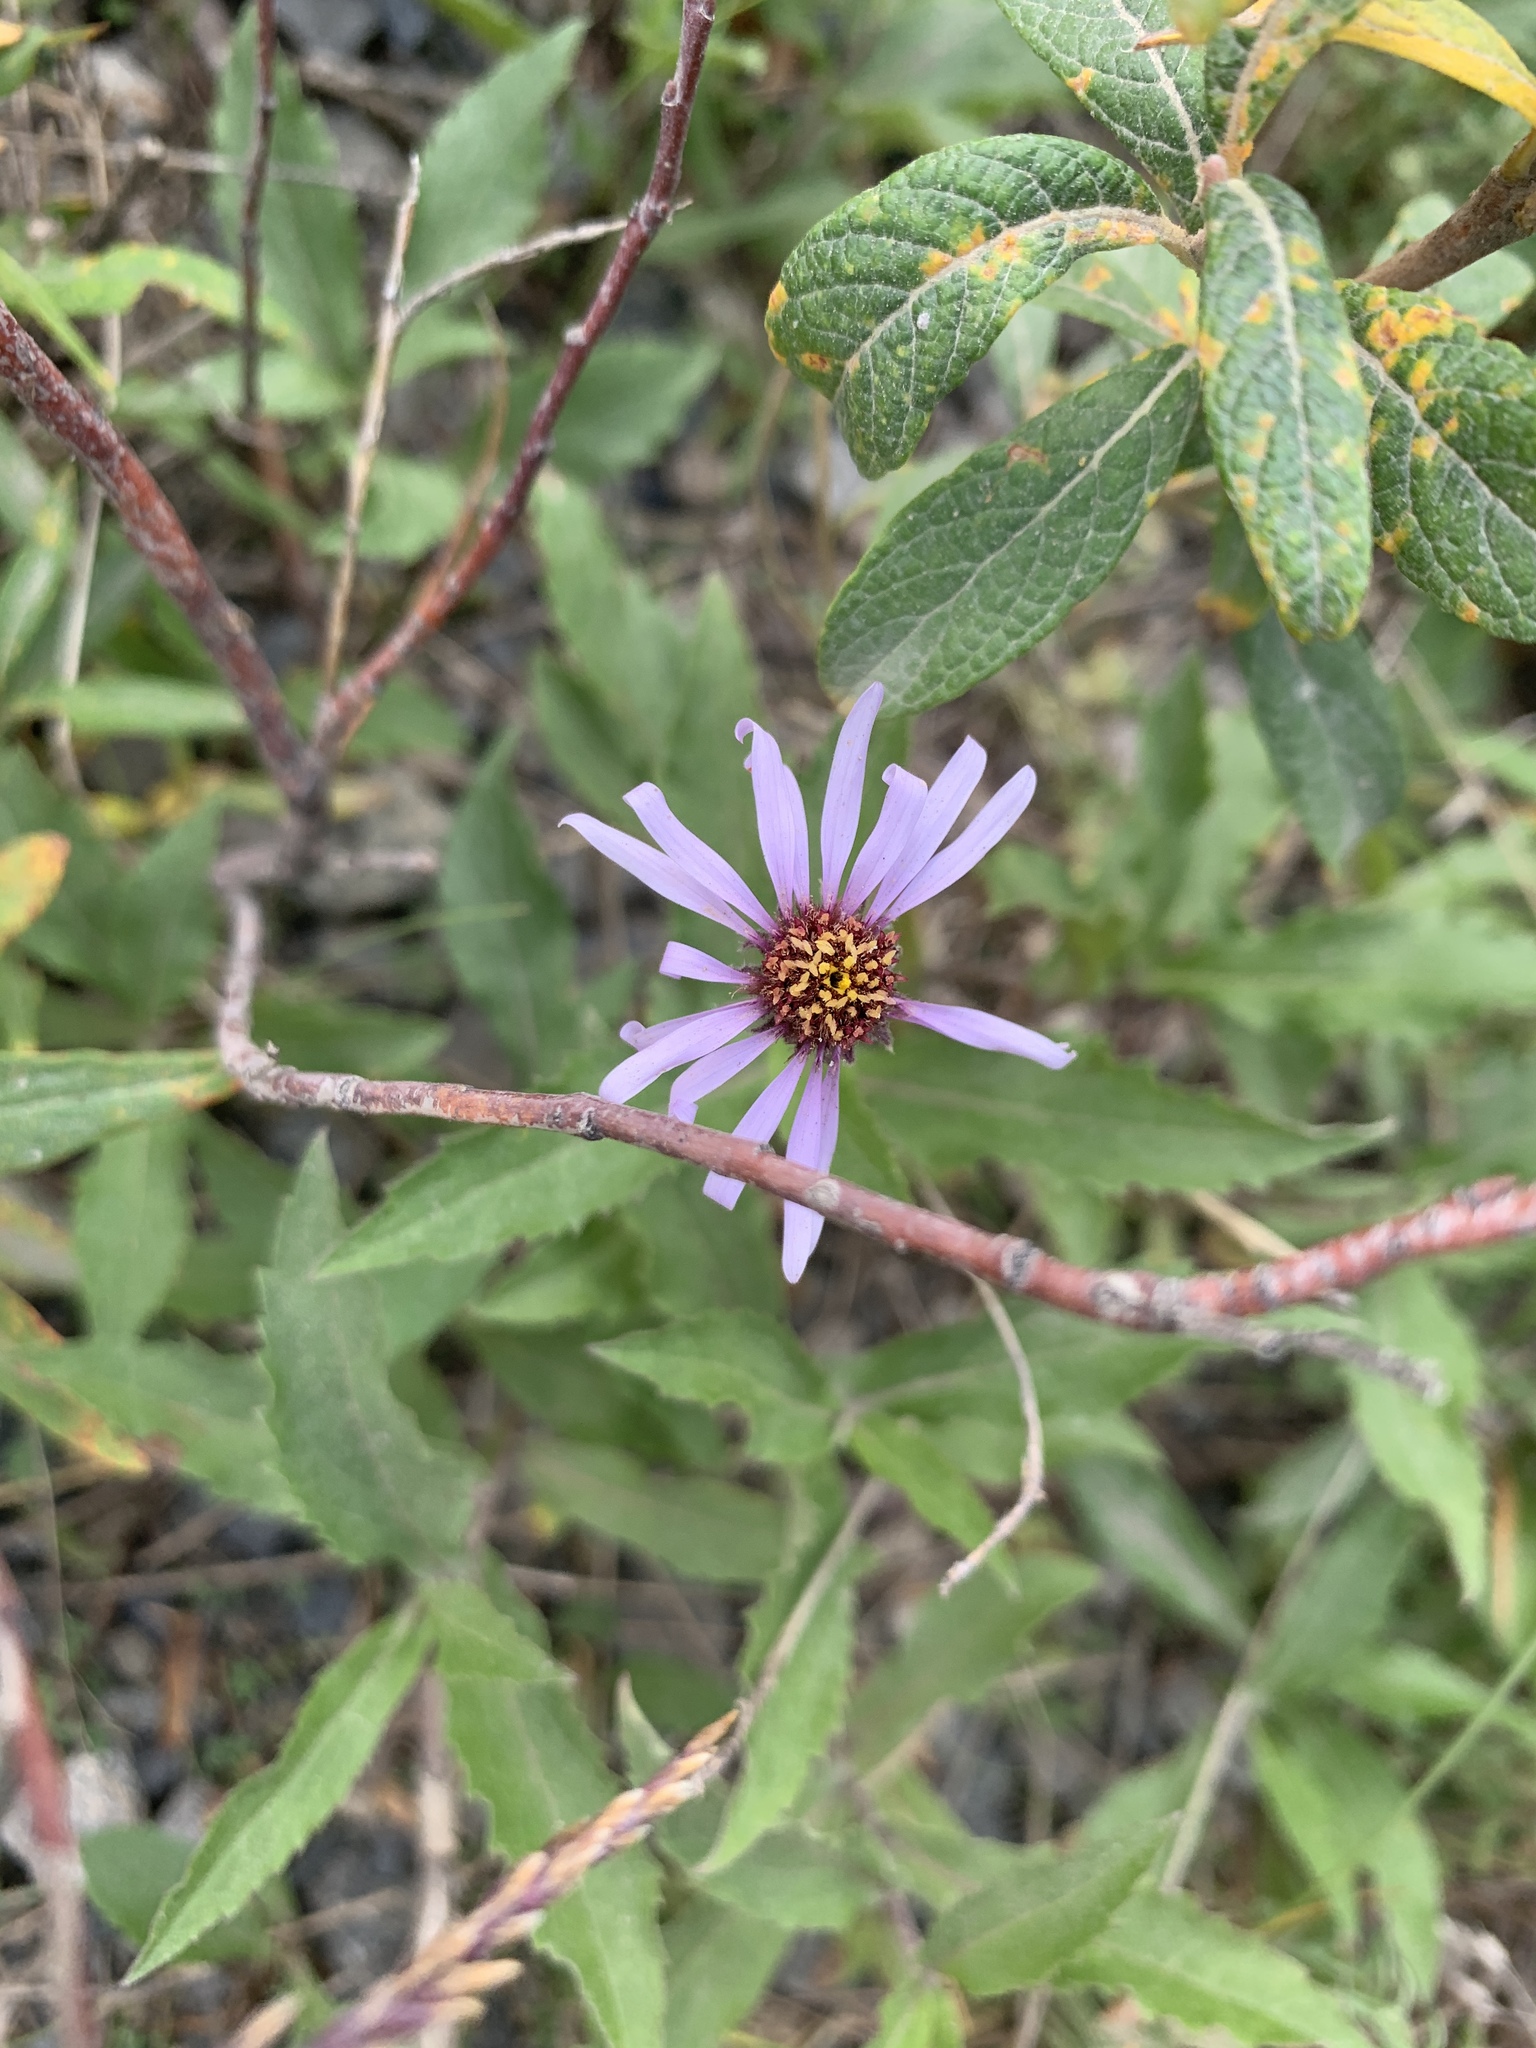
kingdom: Plantae
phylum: Tracheophyta
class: Magnoliopsida
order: Asterales
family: Asteraceae
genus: Eurybia
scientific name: Eurybia sibirica
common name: Arctic aster
